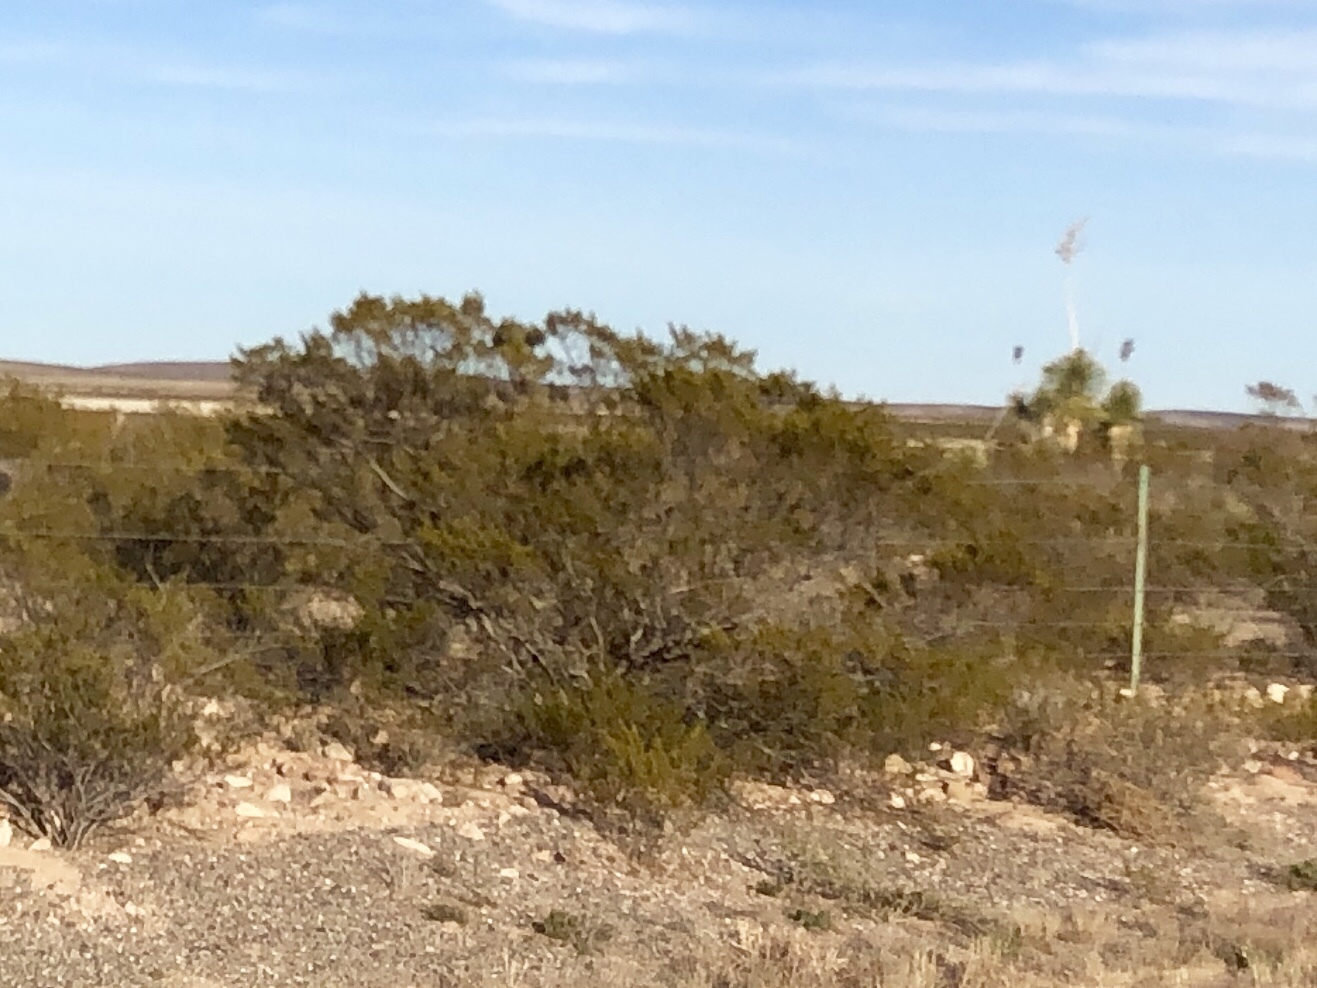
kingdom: Plantae
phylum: Tracheophyta
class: Magnoliopsida
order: Zygophyllales
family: Zygophyllaceae
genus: Larrea
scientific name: Larrea tridentata
